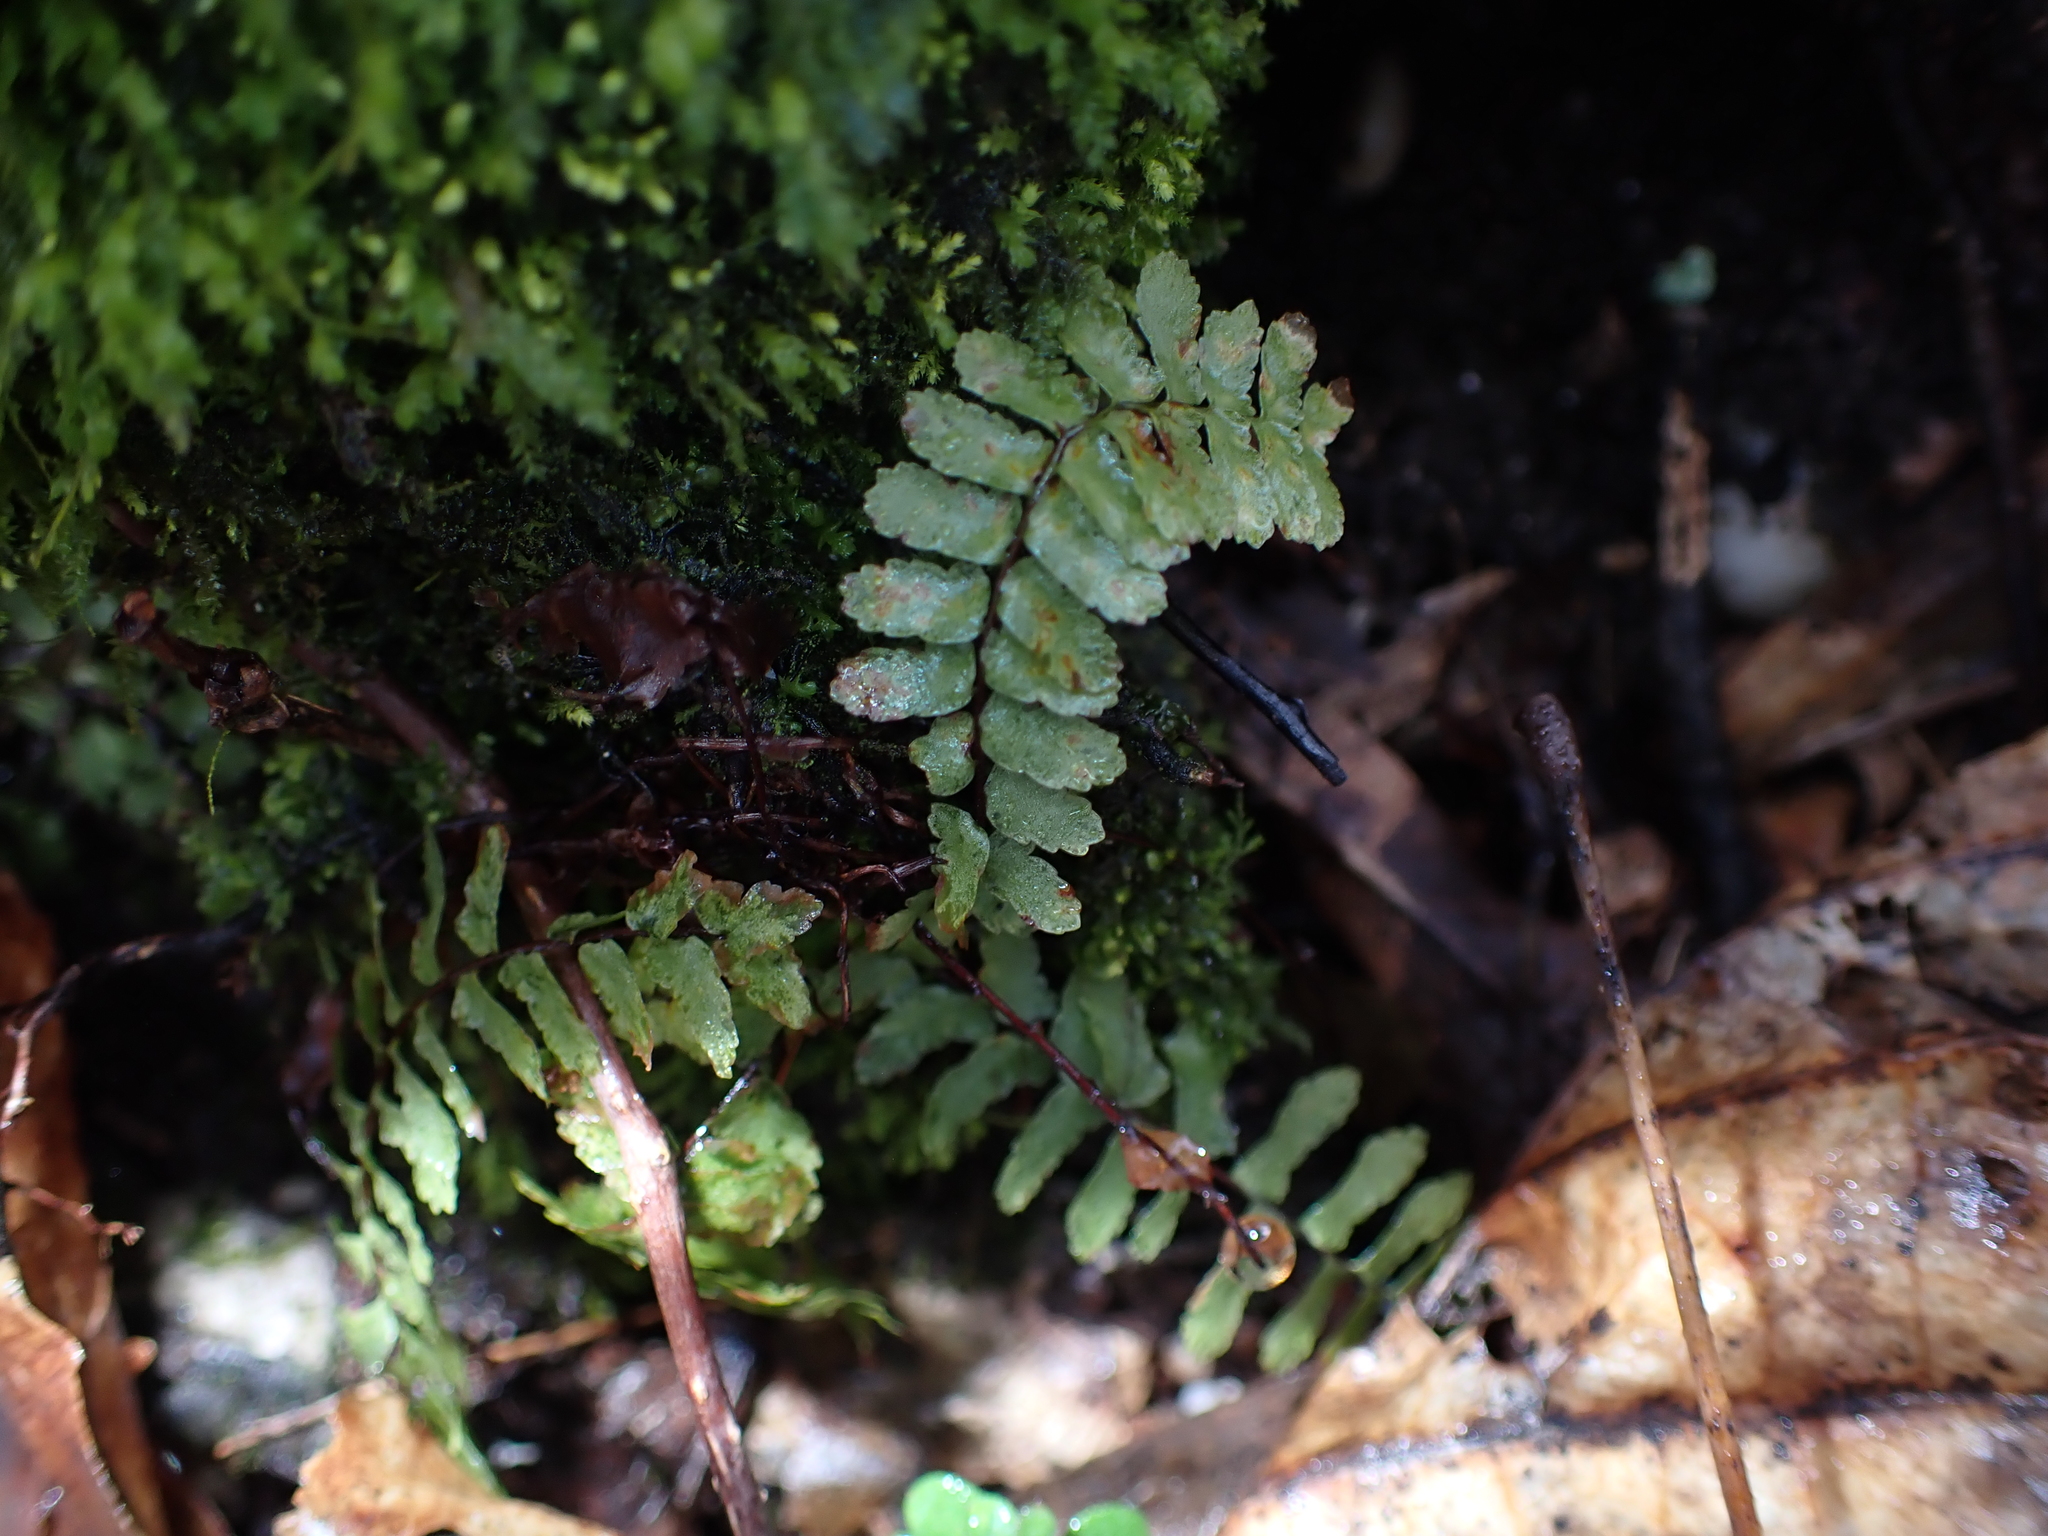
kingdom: Plantae
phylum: Tracheophyta
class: Polypodiopsida
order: Polypodiales
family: Aspleniaceae
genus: Asplenium
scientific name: Asplenium platyneuron
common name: Ebony spleenwort
